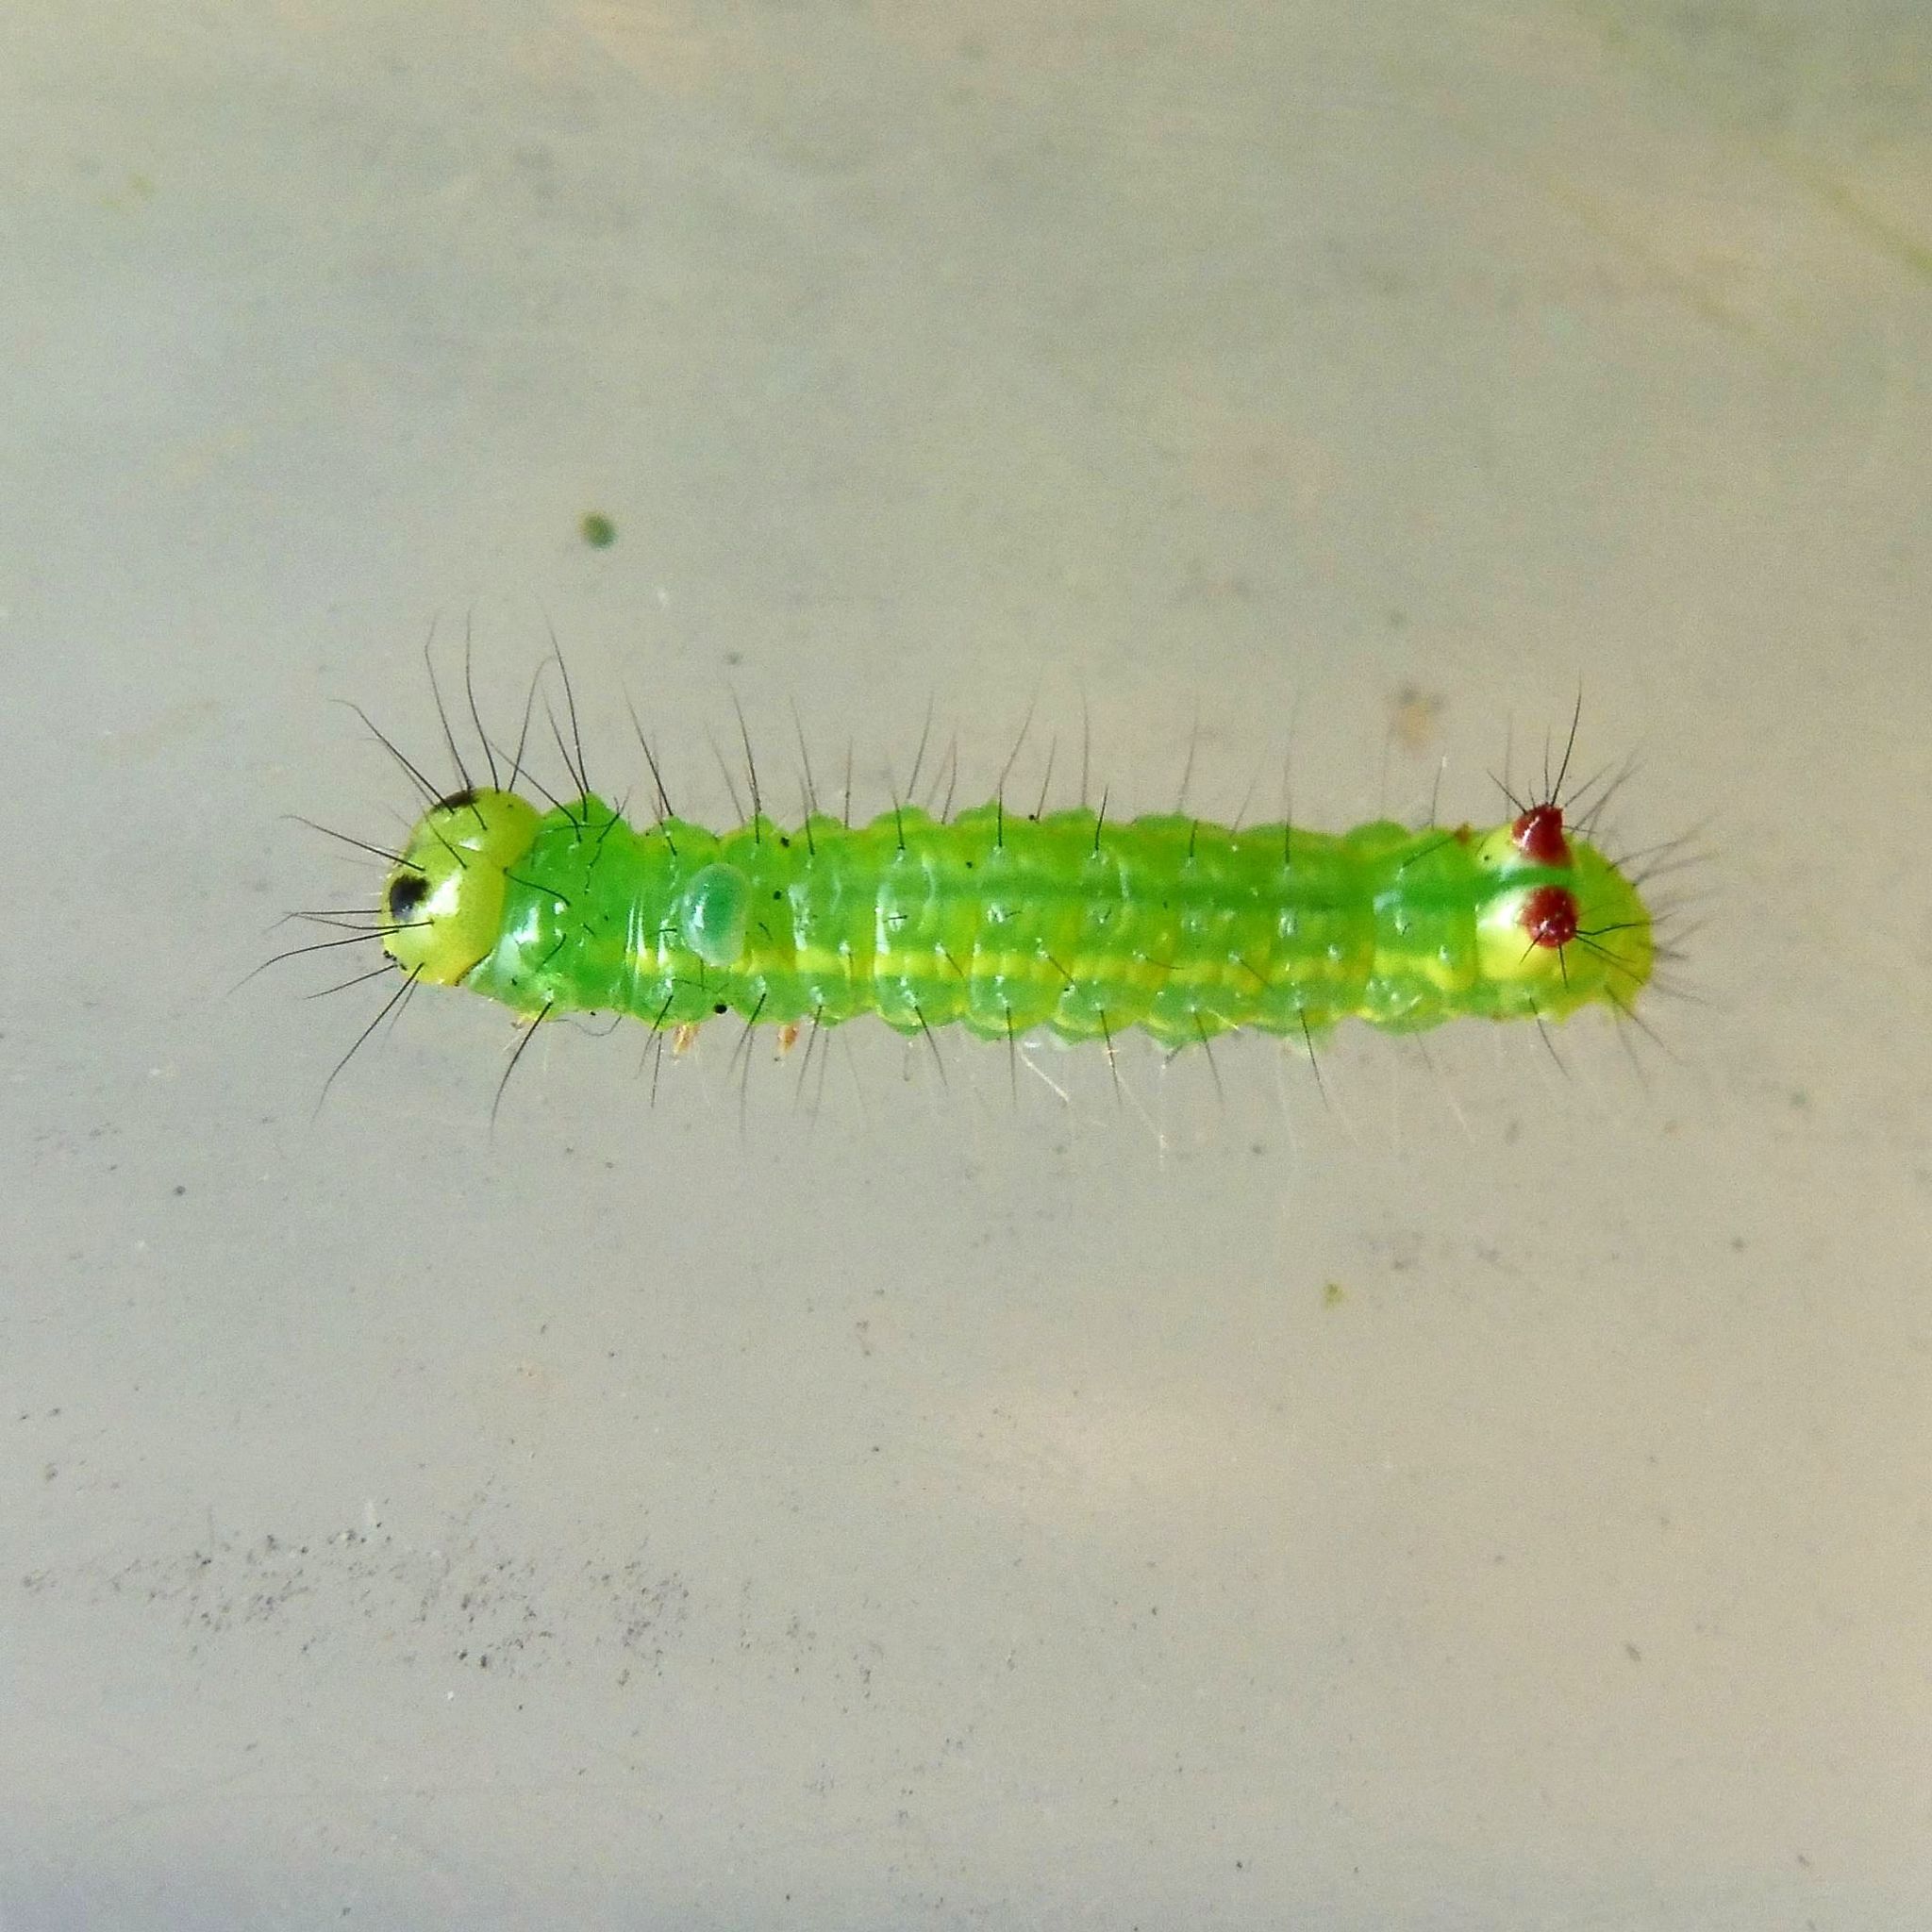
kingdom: Animalia
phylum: Arthropoda
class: Insecta
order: Lepidoptera
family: Notodontidae
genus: Ptilodon
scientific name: Ptilodon capucina
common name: Coxcomb prominent
